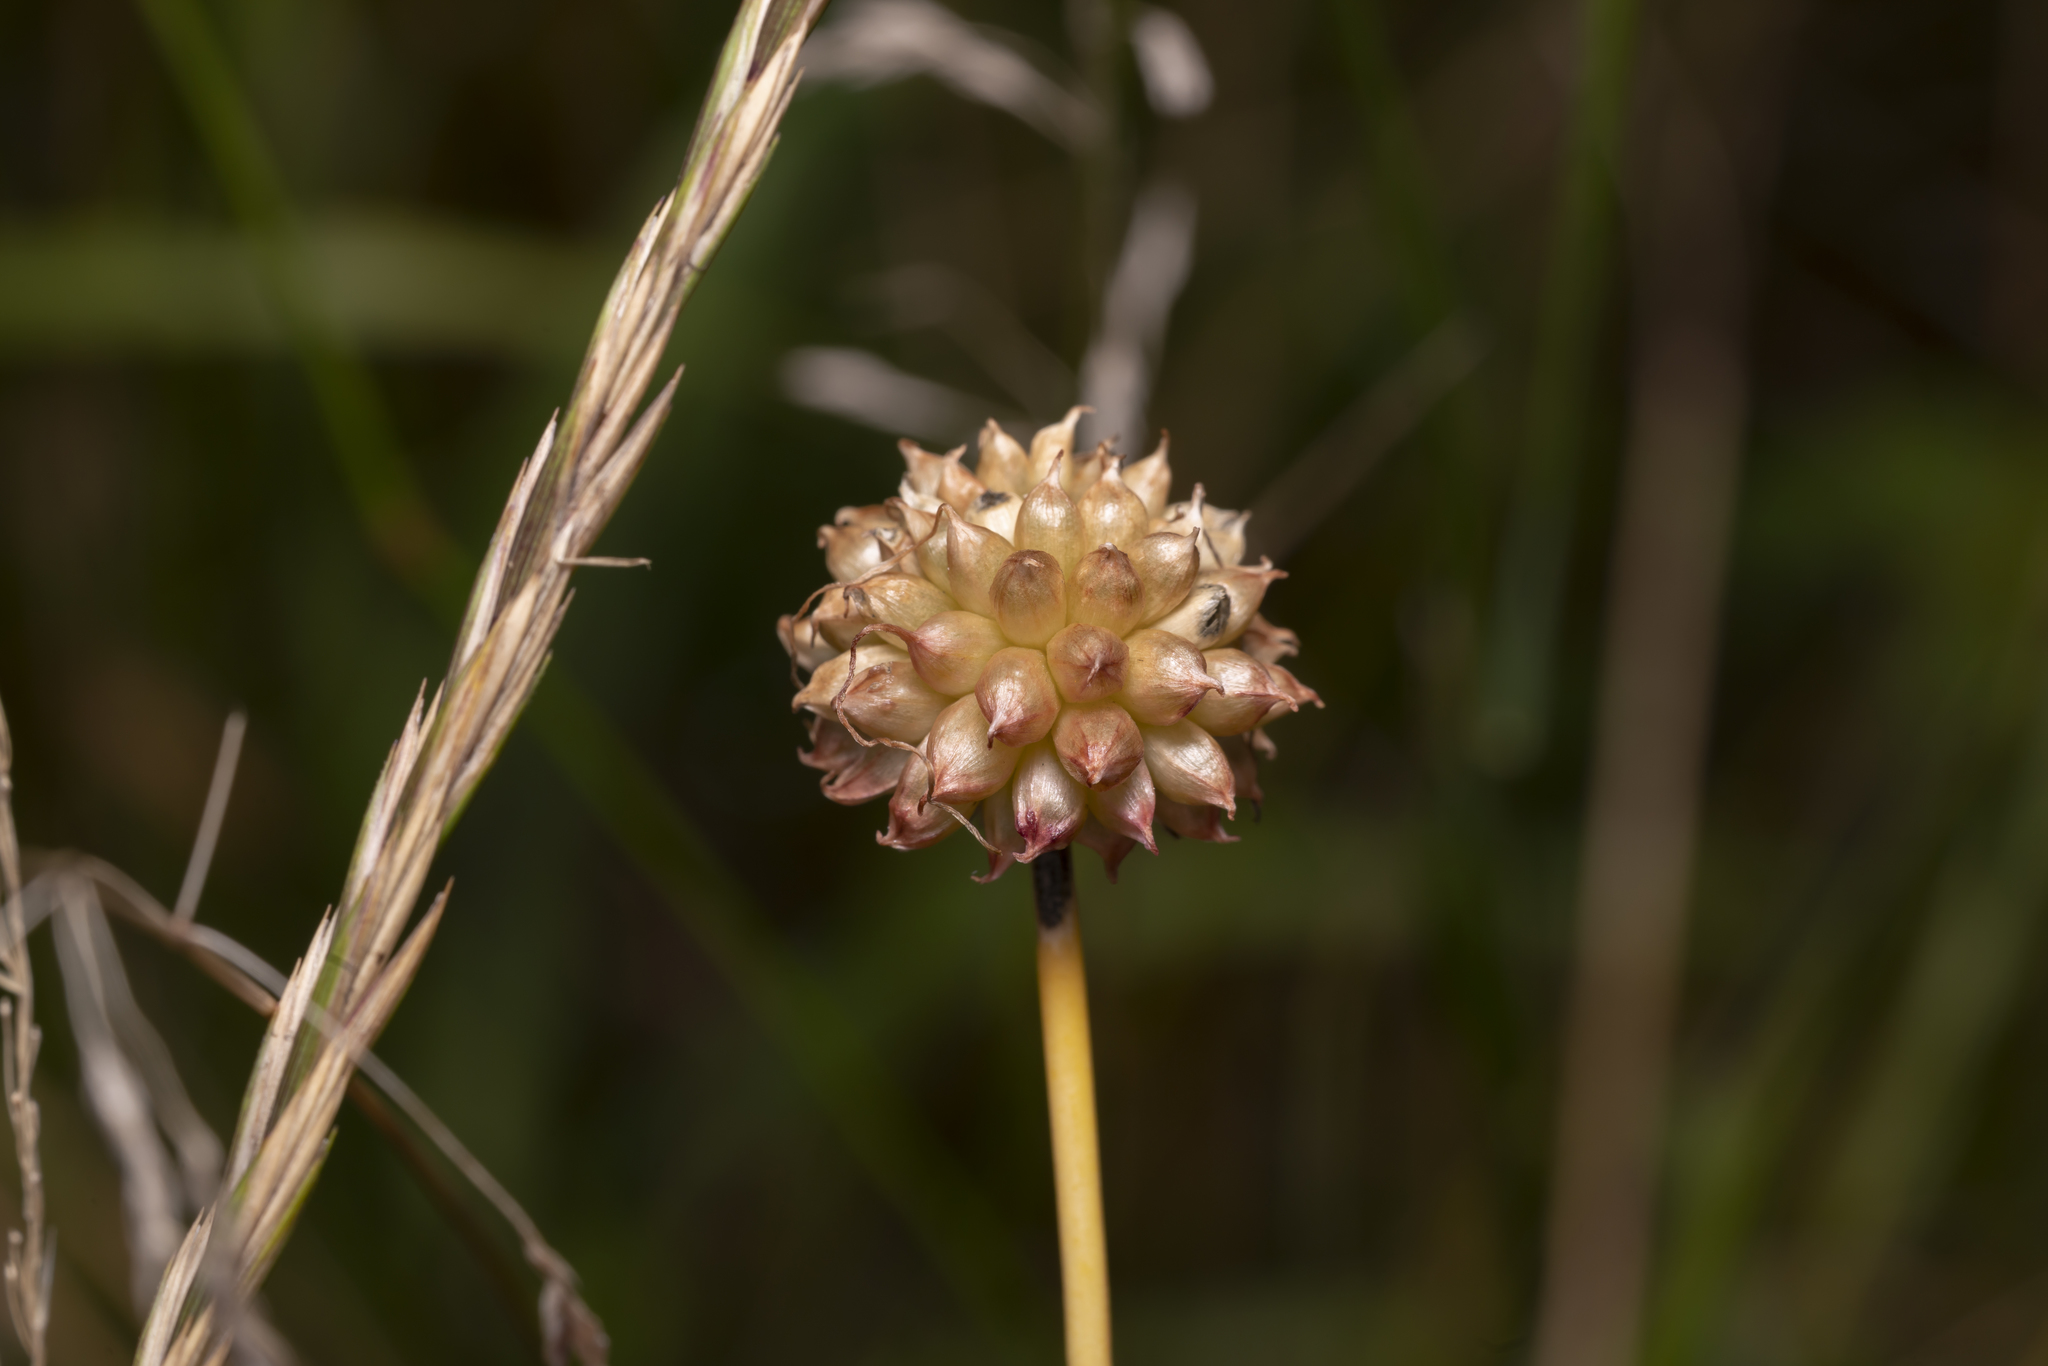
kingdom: Plantae
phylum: Tracheophyta
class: Liliopsida
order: Asparagales
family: Amaryllidaceae
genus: Allium
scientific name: Allium vineale
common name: Crow garlic
